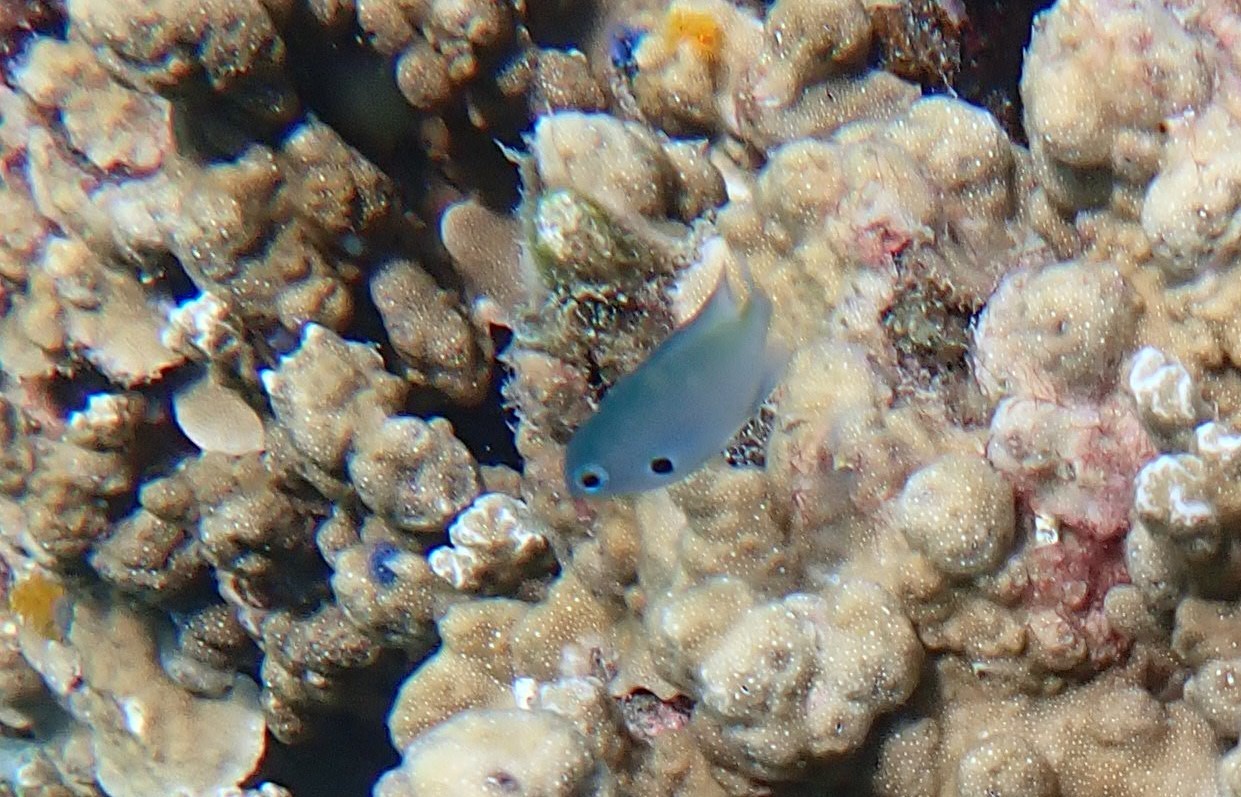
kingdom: Animalia
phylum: Chordata
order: Perciformes
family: Pomacentridae
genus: Pomacentrus
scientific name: Pomacentrus alexanderae
